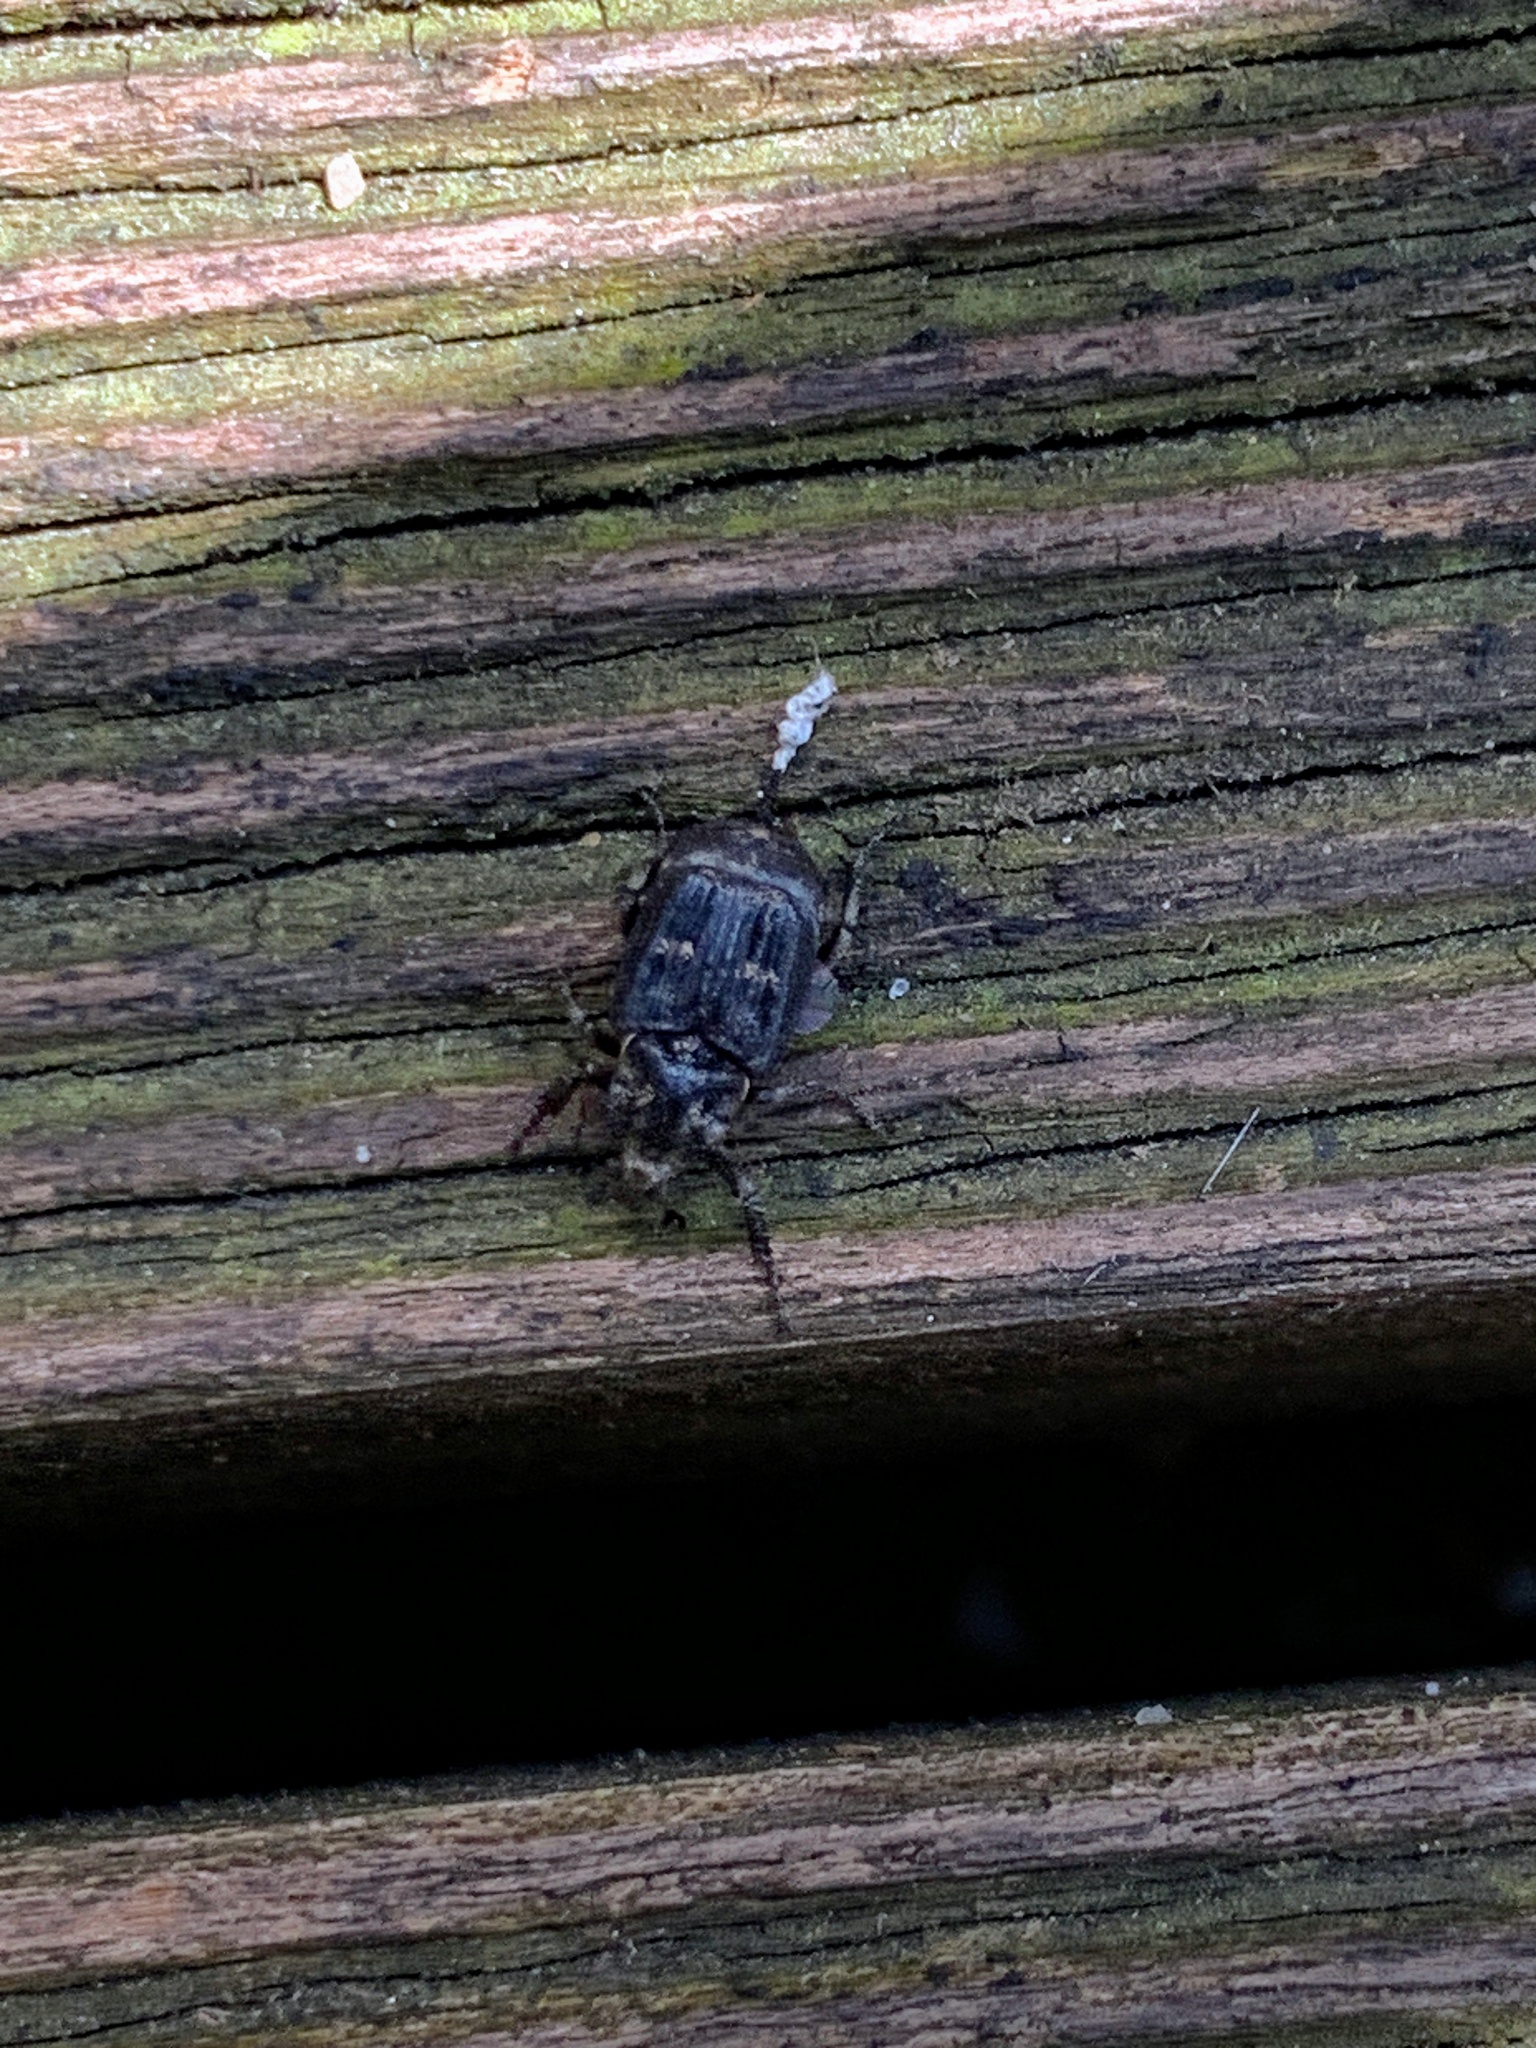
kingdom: Animalia
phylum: Arthropoda
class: Insecta
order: Coleoptera
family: Scarabaeidae
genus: Valgus
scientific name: Valgus hemipterus
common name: Bug flower chafer
